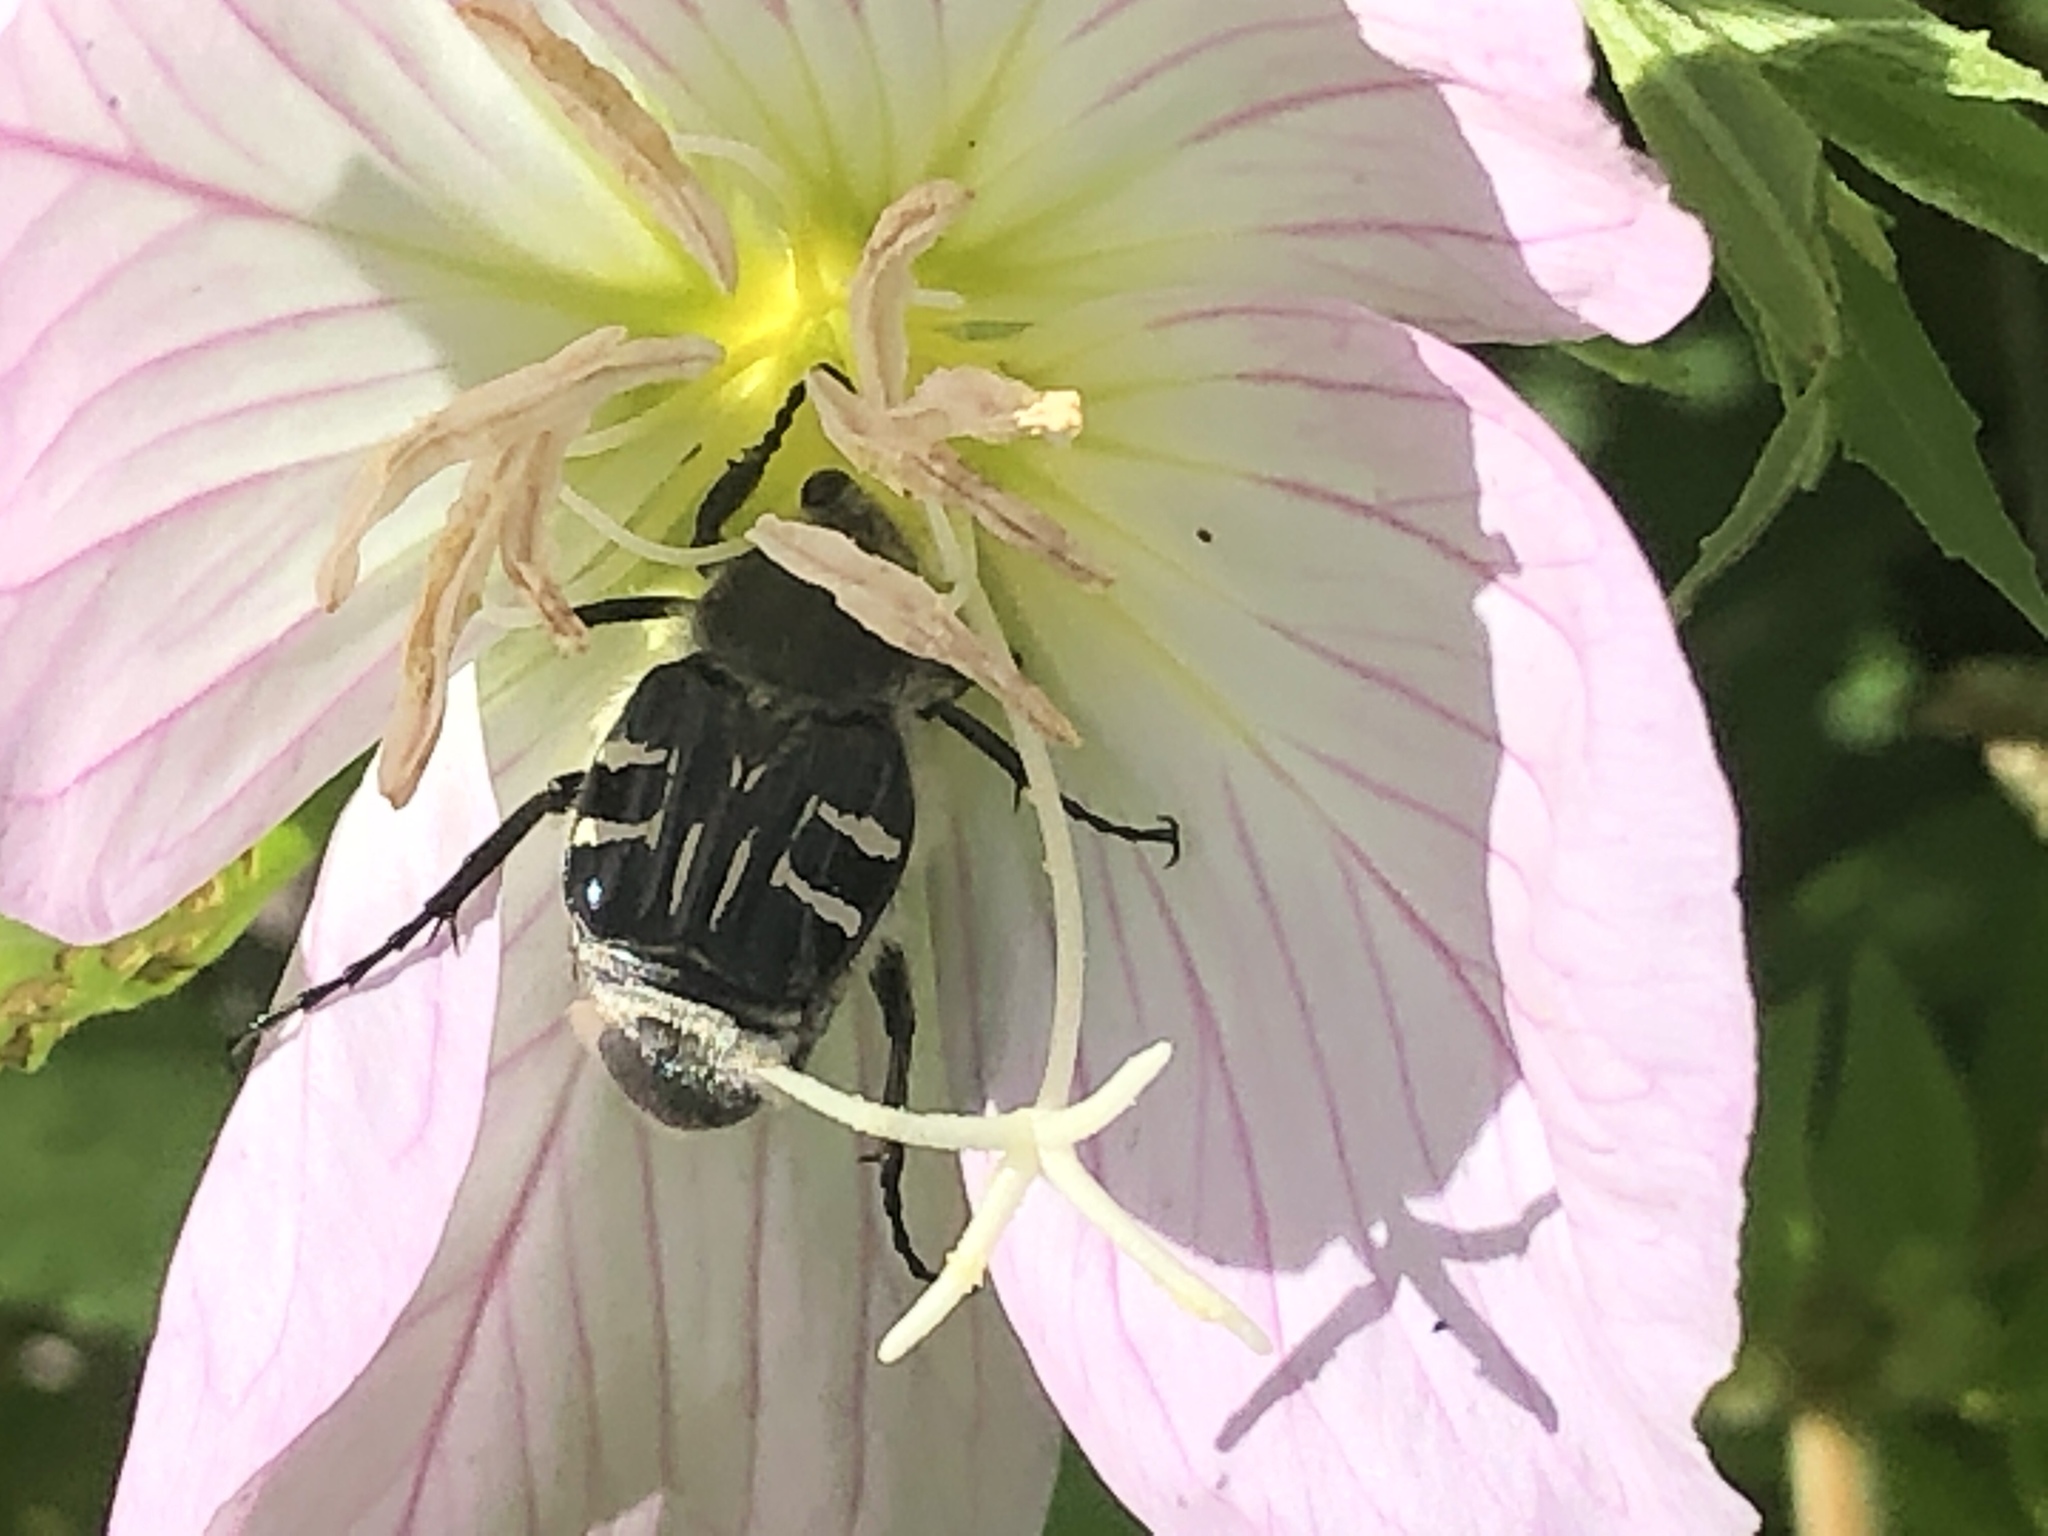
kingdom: Animalia
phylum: Arthropoda
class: Insecta
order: Coleoptera
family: Scarabaeidae
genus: Trichiotinus
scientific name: Trichiotinus texanus
